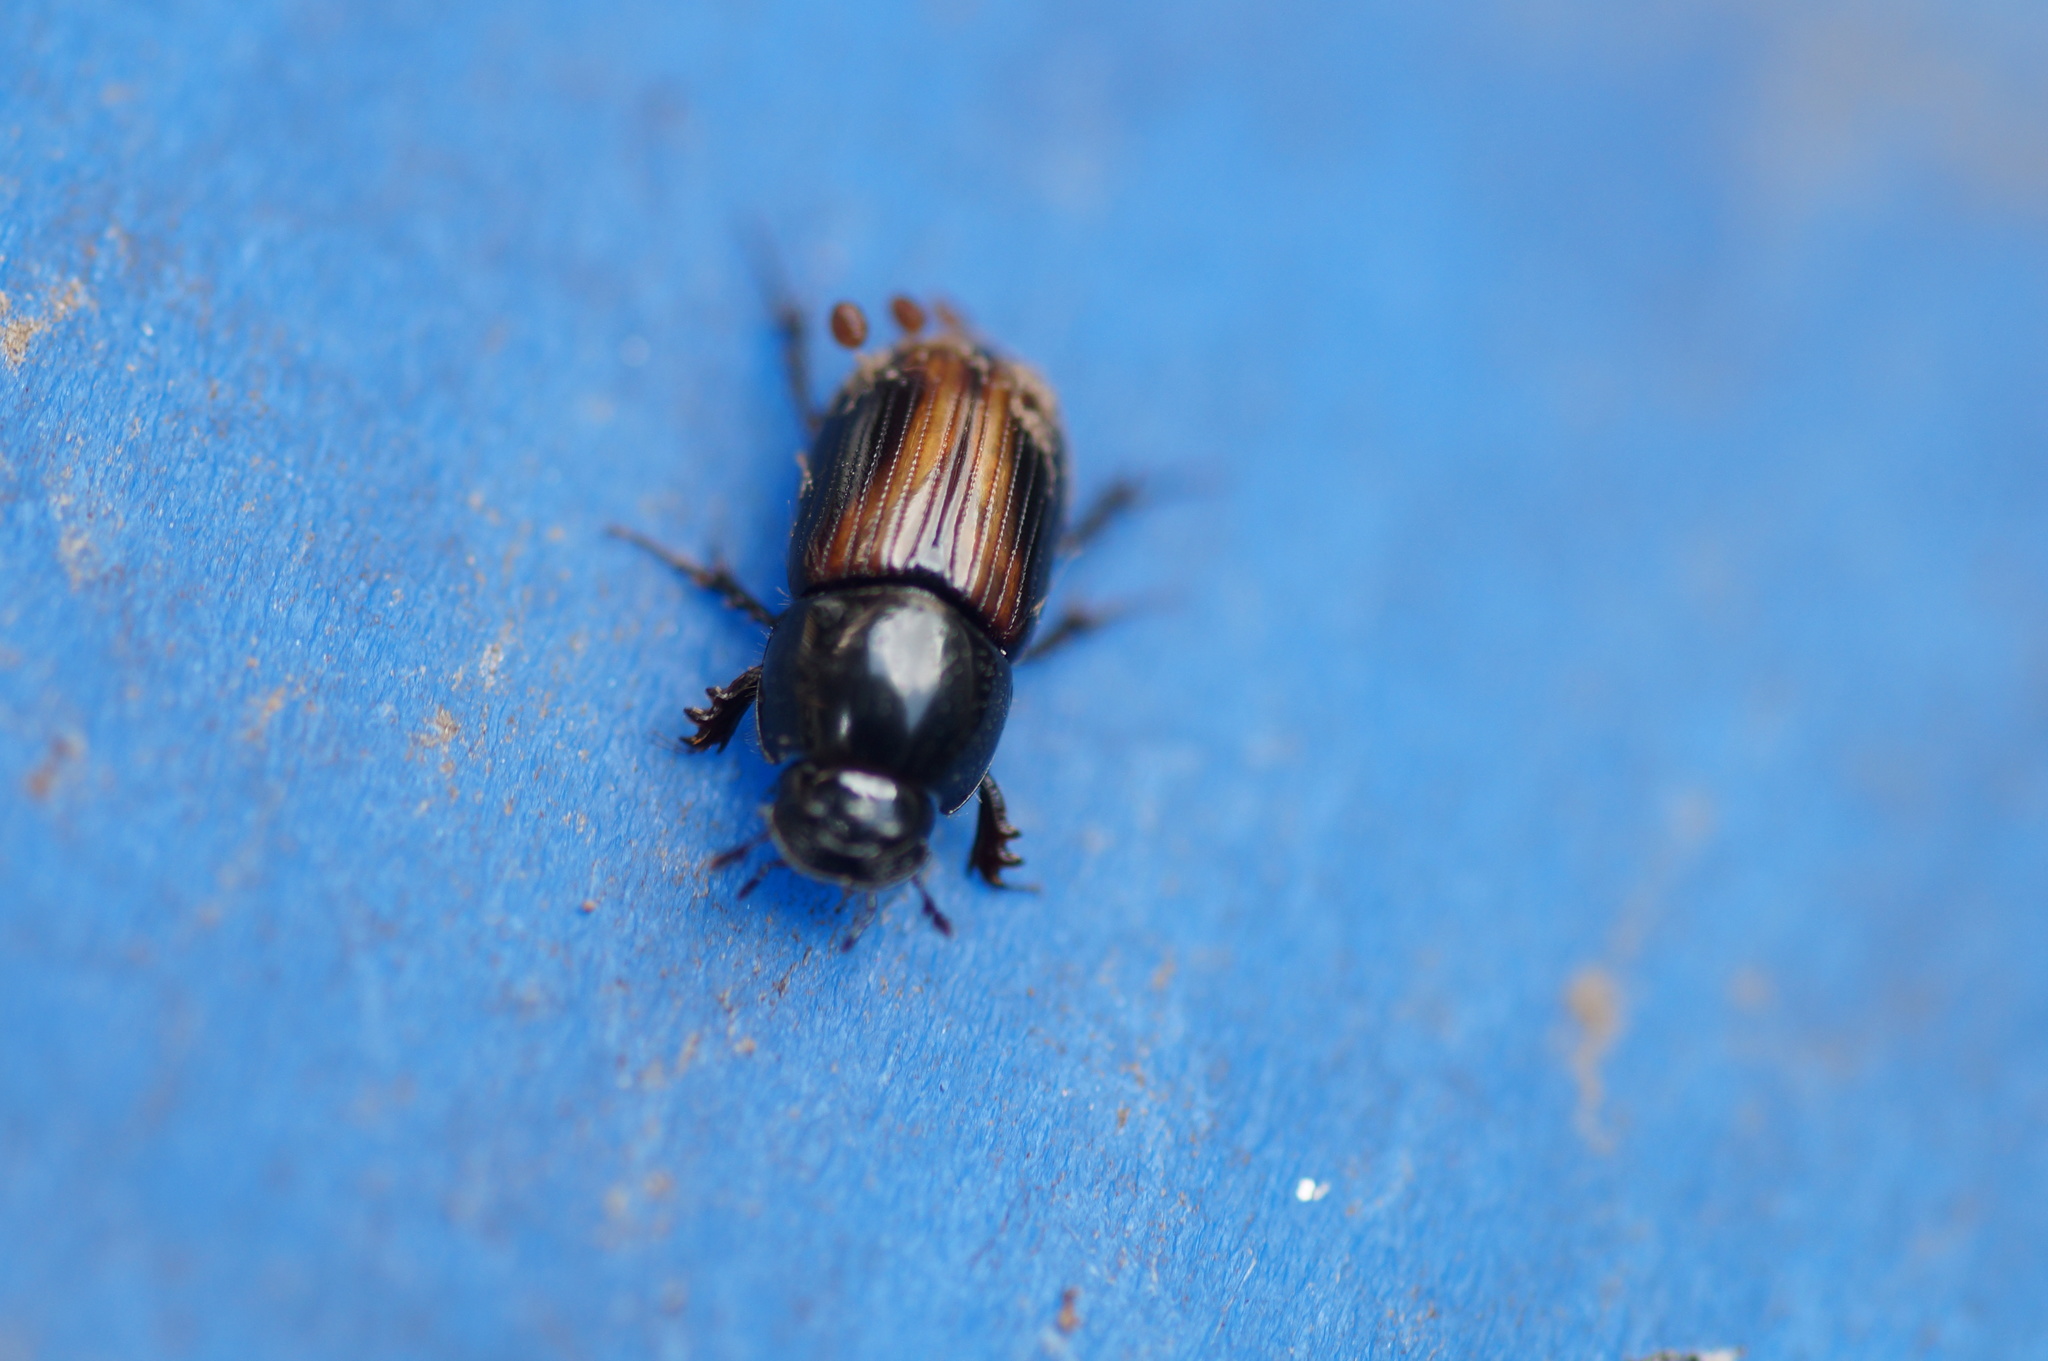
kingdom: Animalia
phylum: Arthropoda
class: Insecta
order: Coleoptera
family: Scarabaeidae
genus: Phaeaphodius
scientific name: Phaeaphodius rectus
